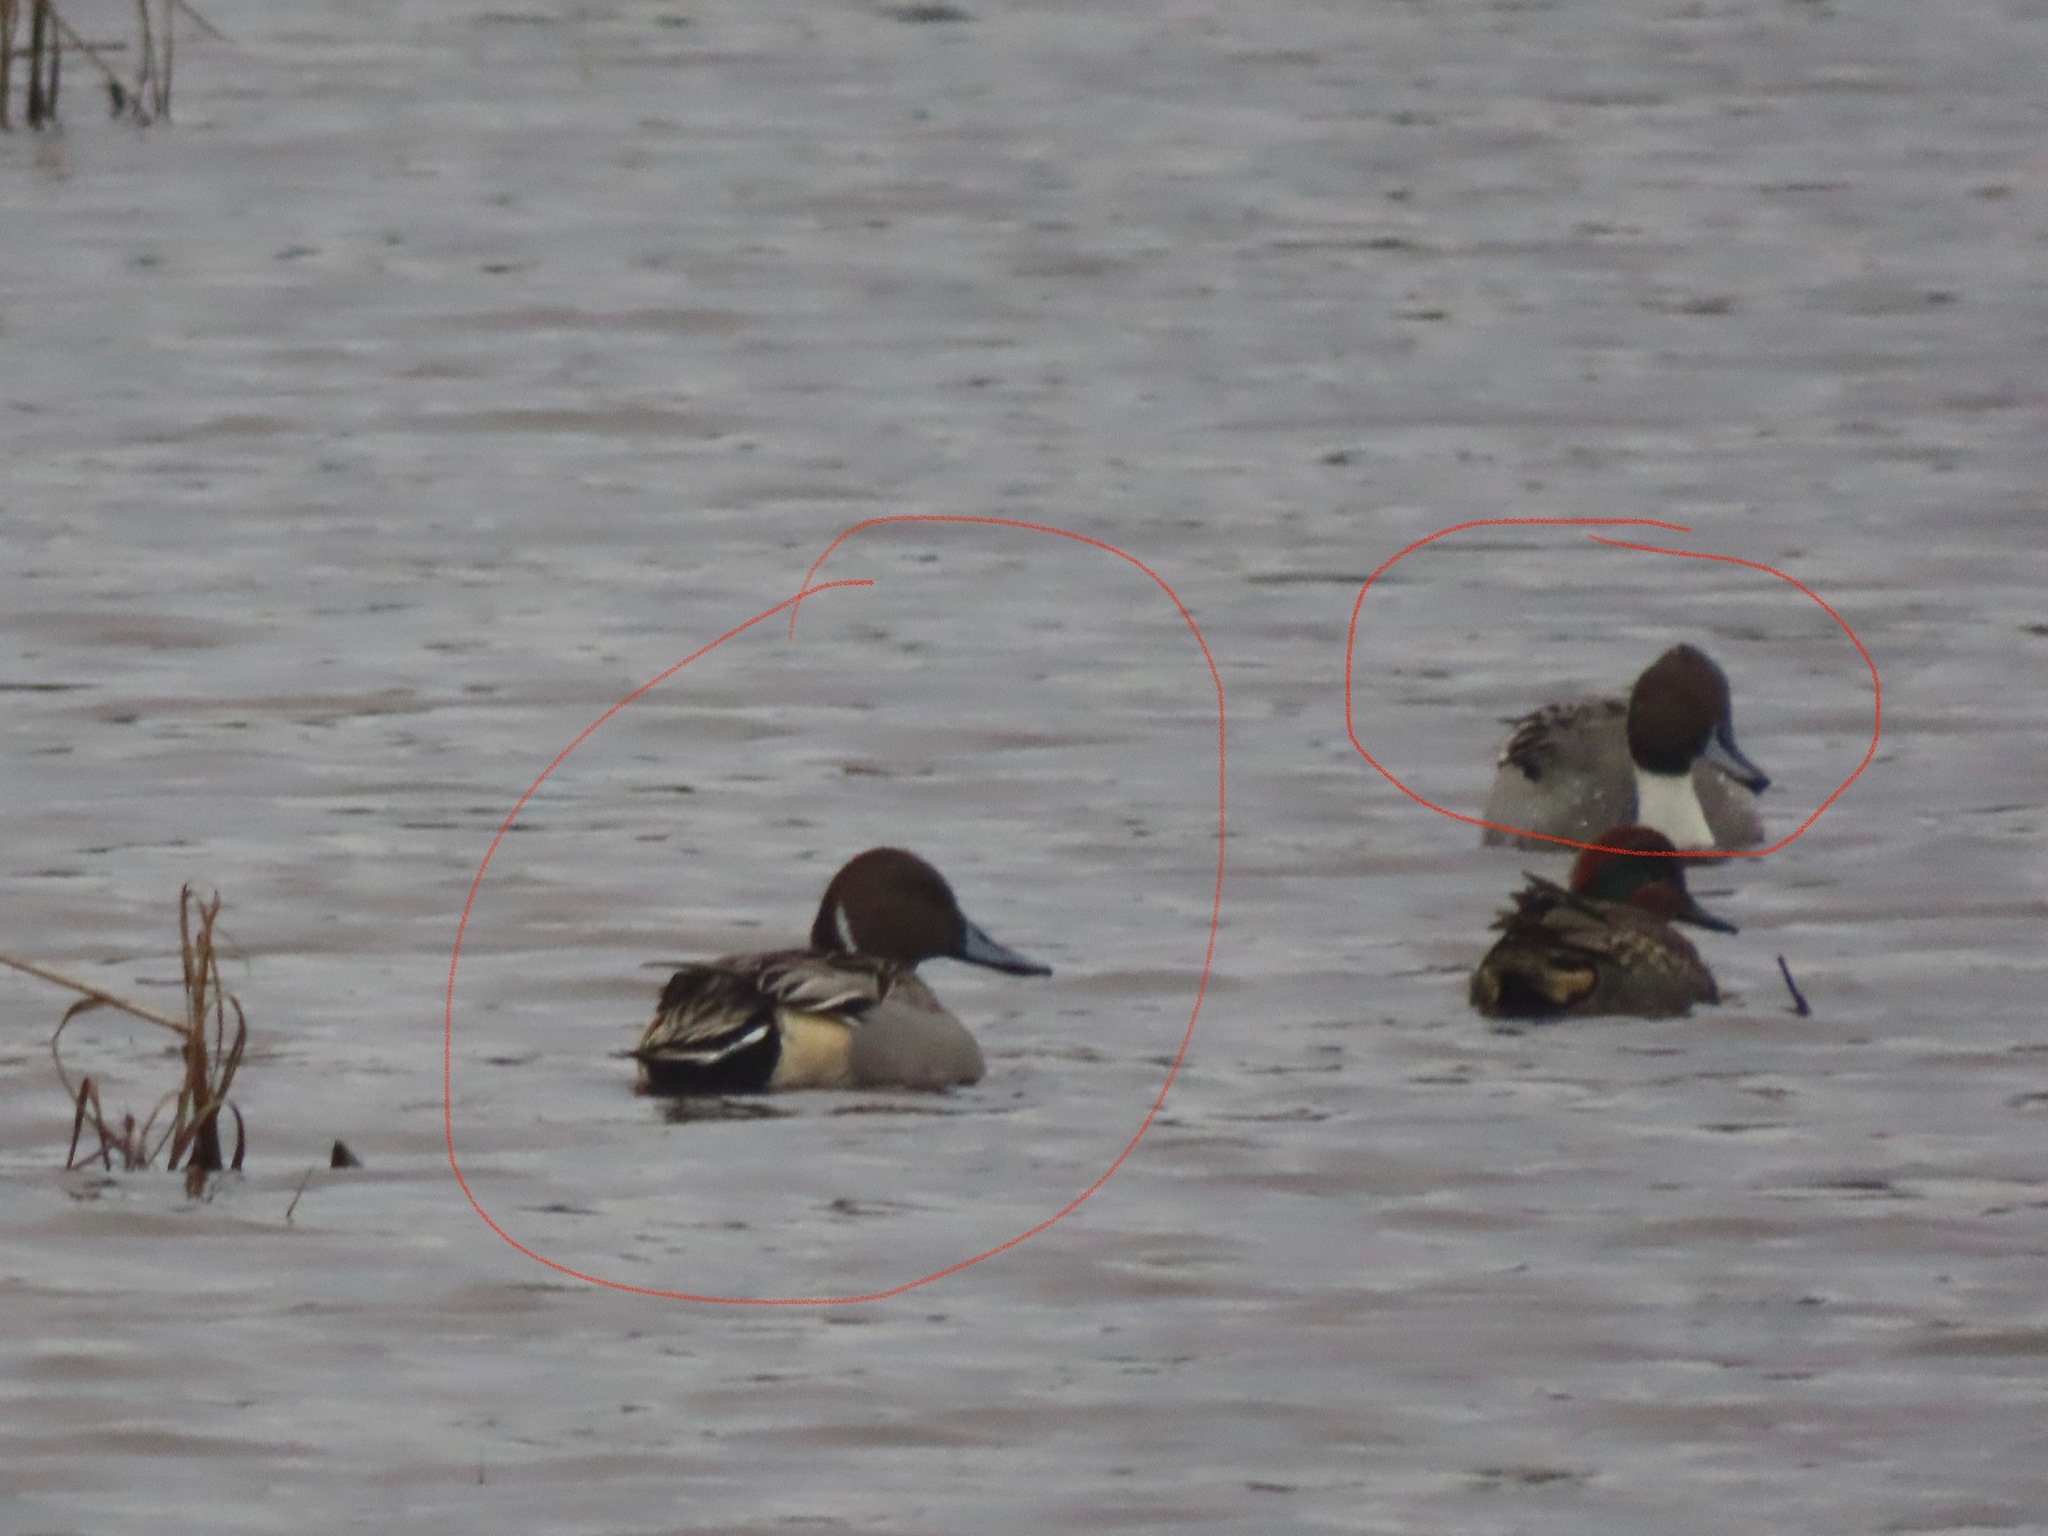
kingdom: Animalia
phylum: Chordata
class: Aves
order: Anseriformes
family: Anatidae
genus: Anas
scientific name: Anas acuta
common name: Northern pintail
